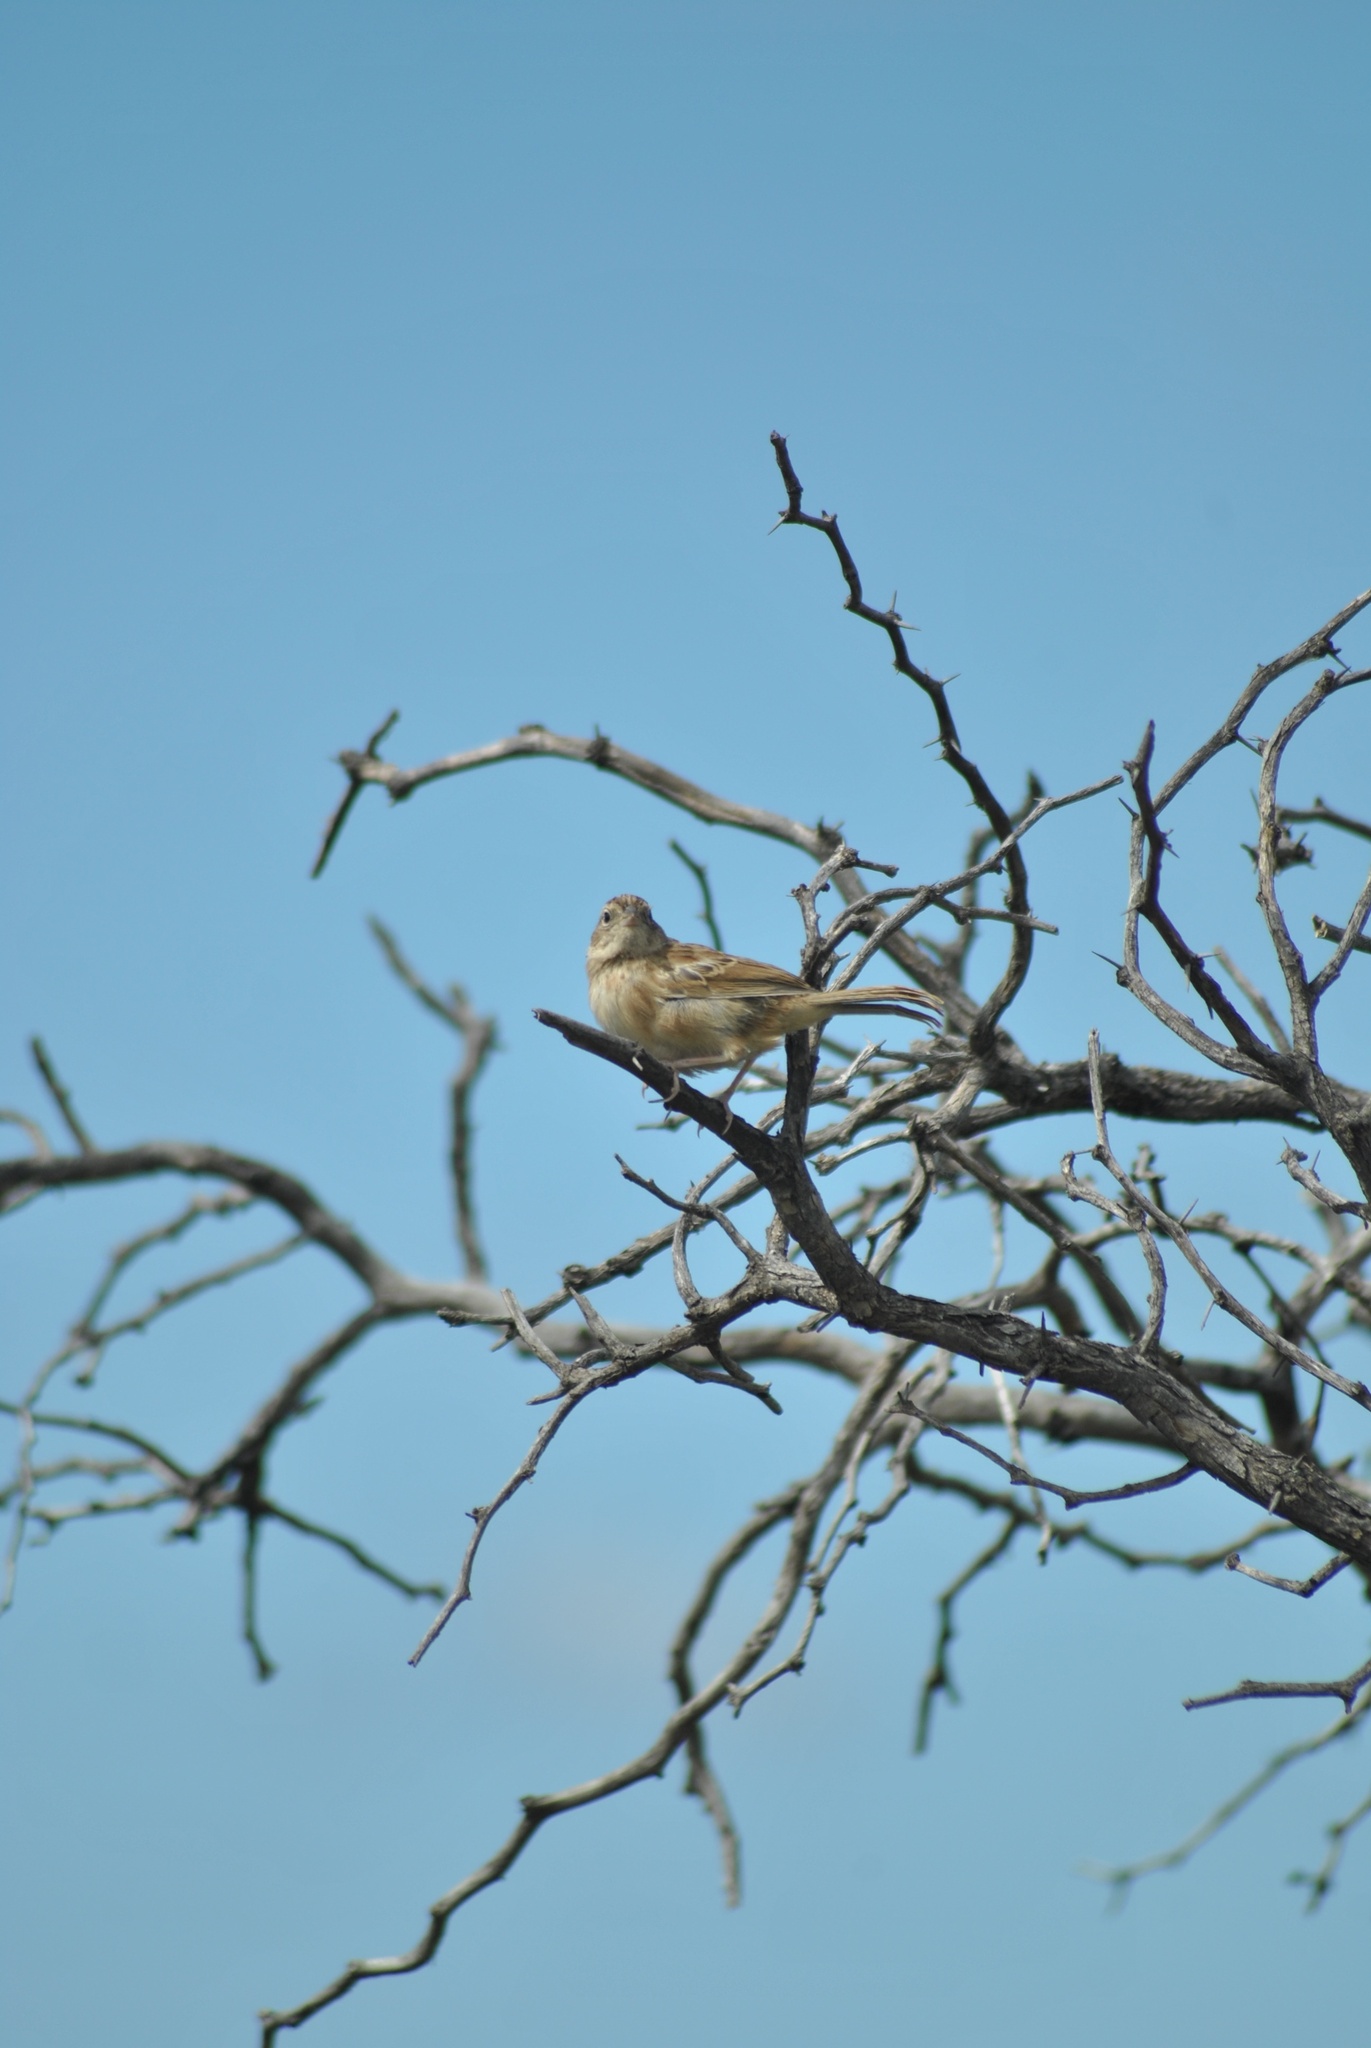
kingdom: Animalia
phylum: Chordata
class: Aves
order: Passeriformes
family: Passerellidae
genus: Ammodramus
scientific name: Ammodramus humeralis
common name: Grassland sparrow
